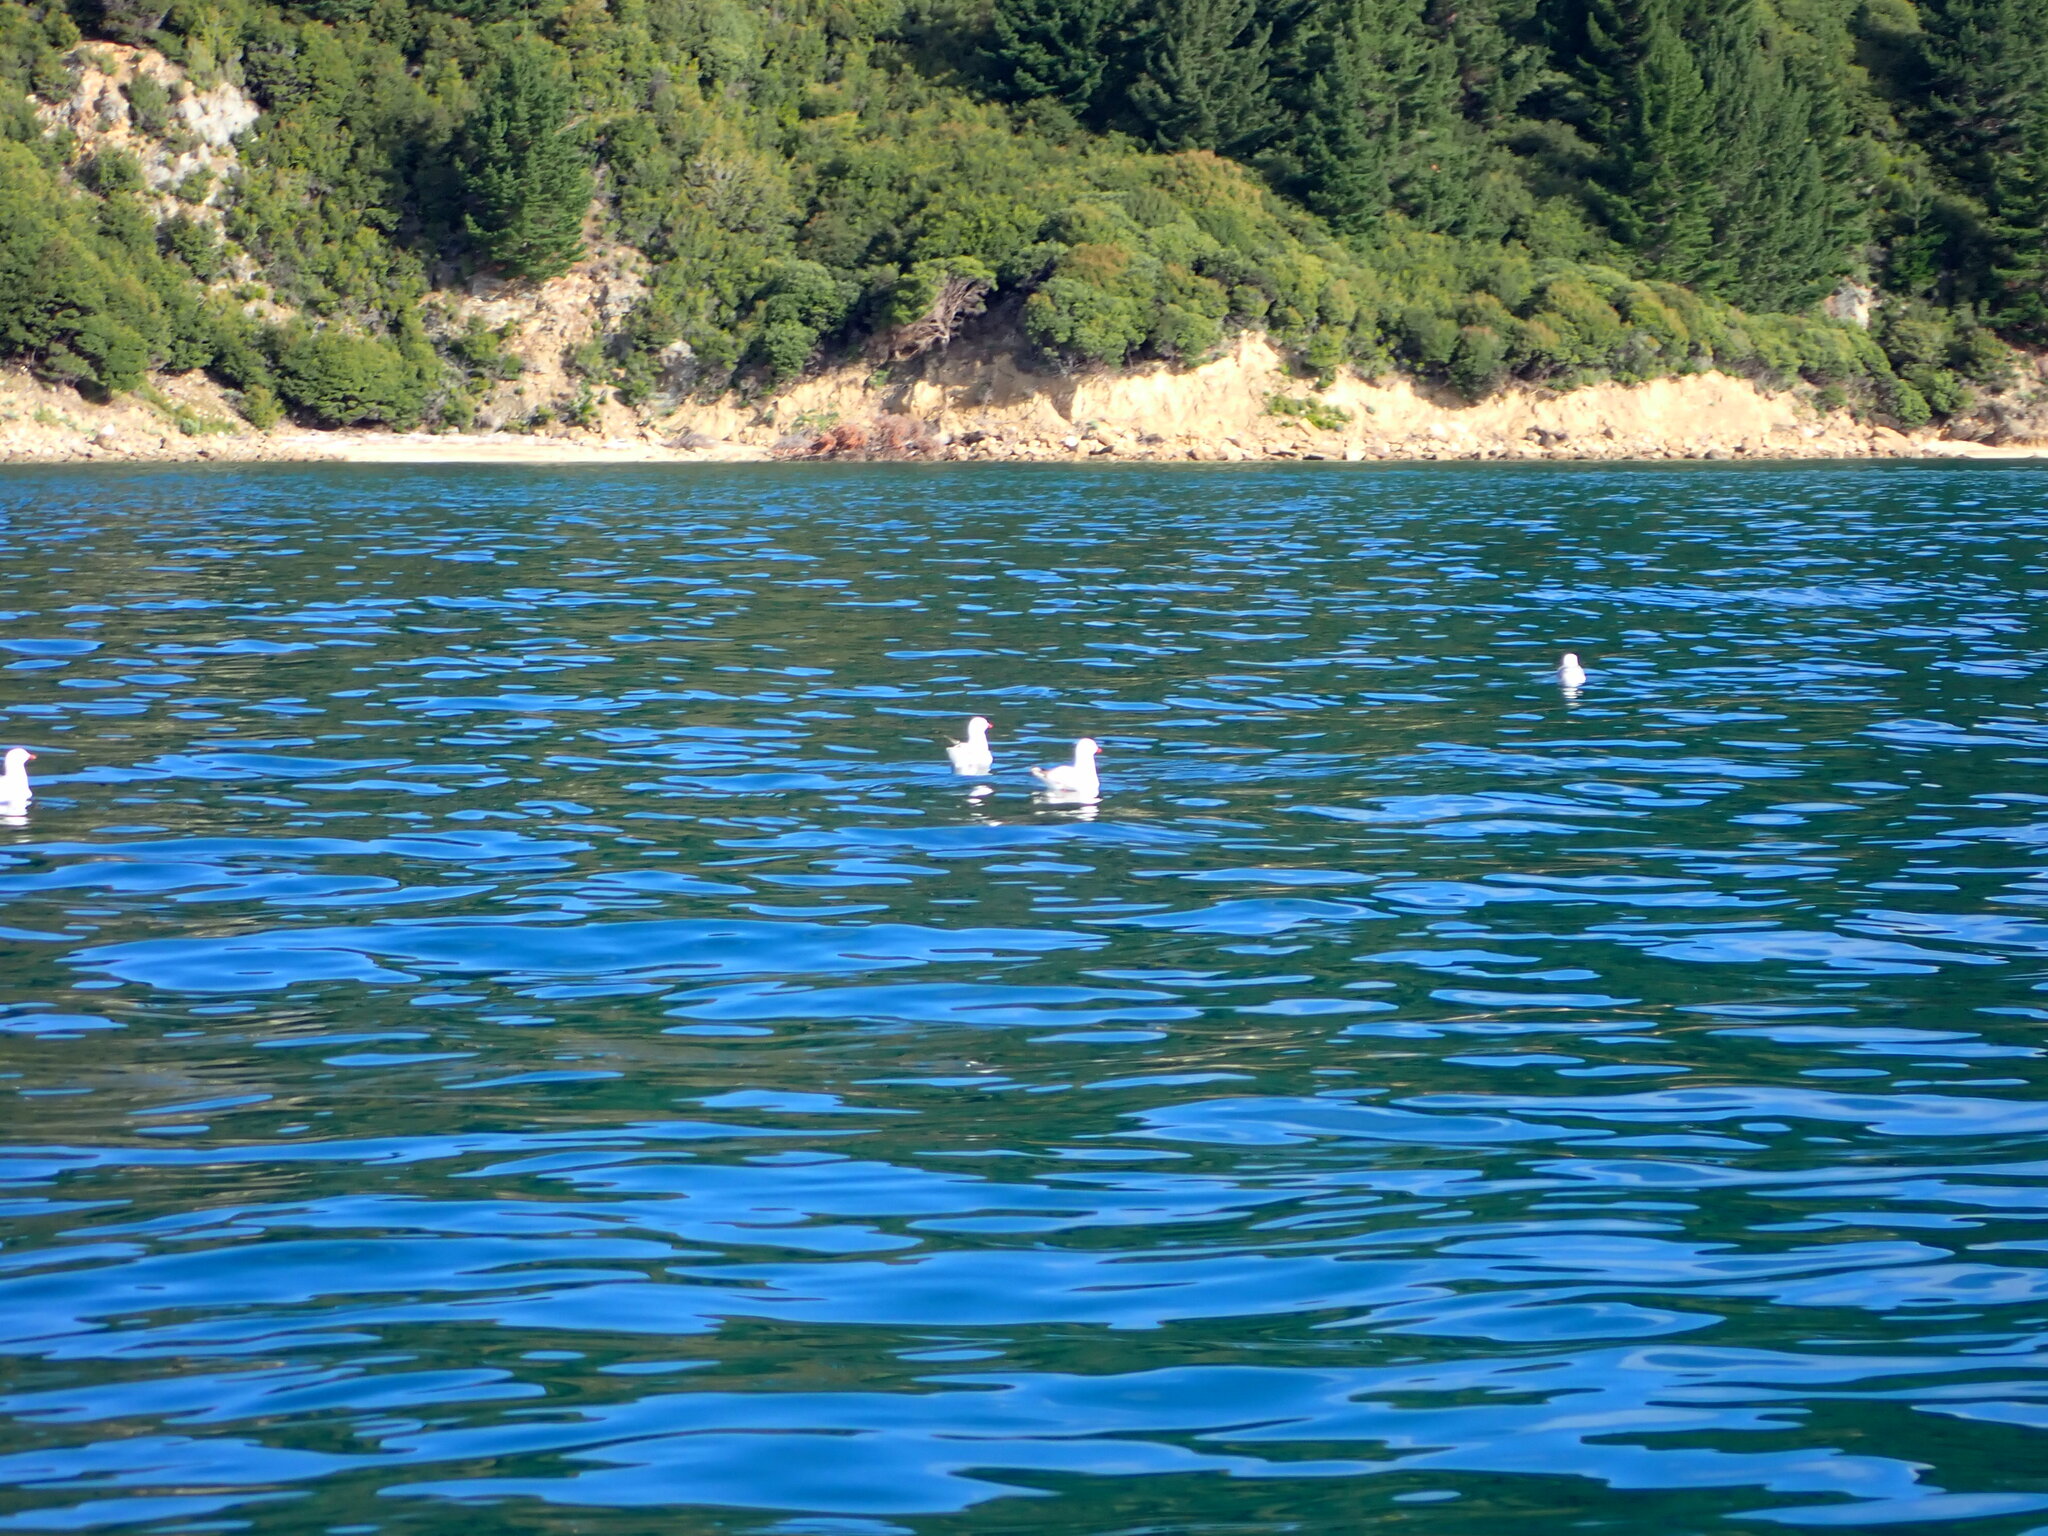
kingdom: Animalia
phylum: Chordata
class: Aves
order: Charadriiformes
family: Laridae
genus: Chroicocephalus
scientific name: Chroicocephalus novaehollandiae
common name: Silver gull
